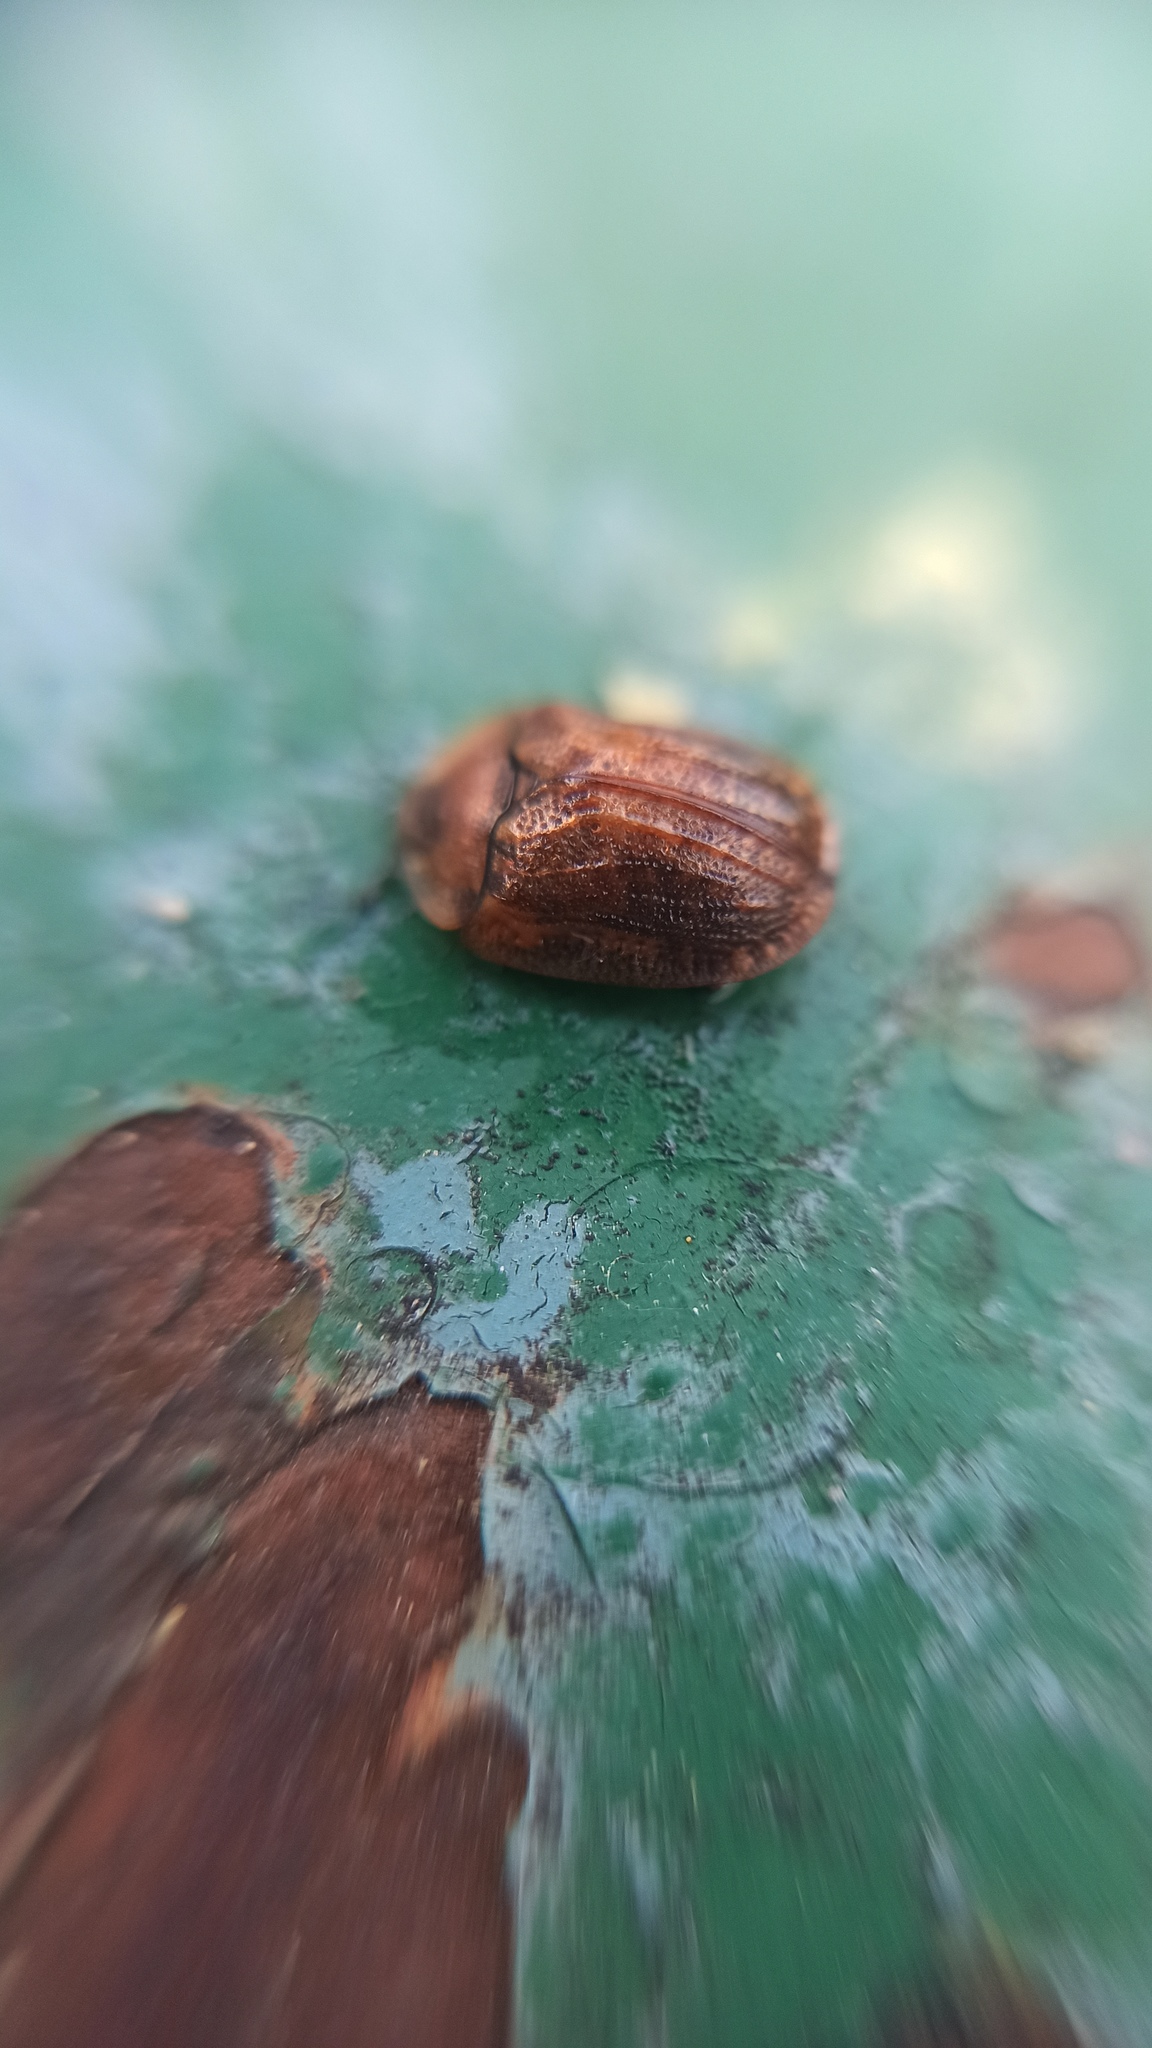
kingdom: Animalia
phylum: Arthropoda
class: Insecta
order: Coleoptera
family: Chrysomelidae
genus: Hypocassida
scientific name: Hypocassida subferruginea
